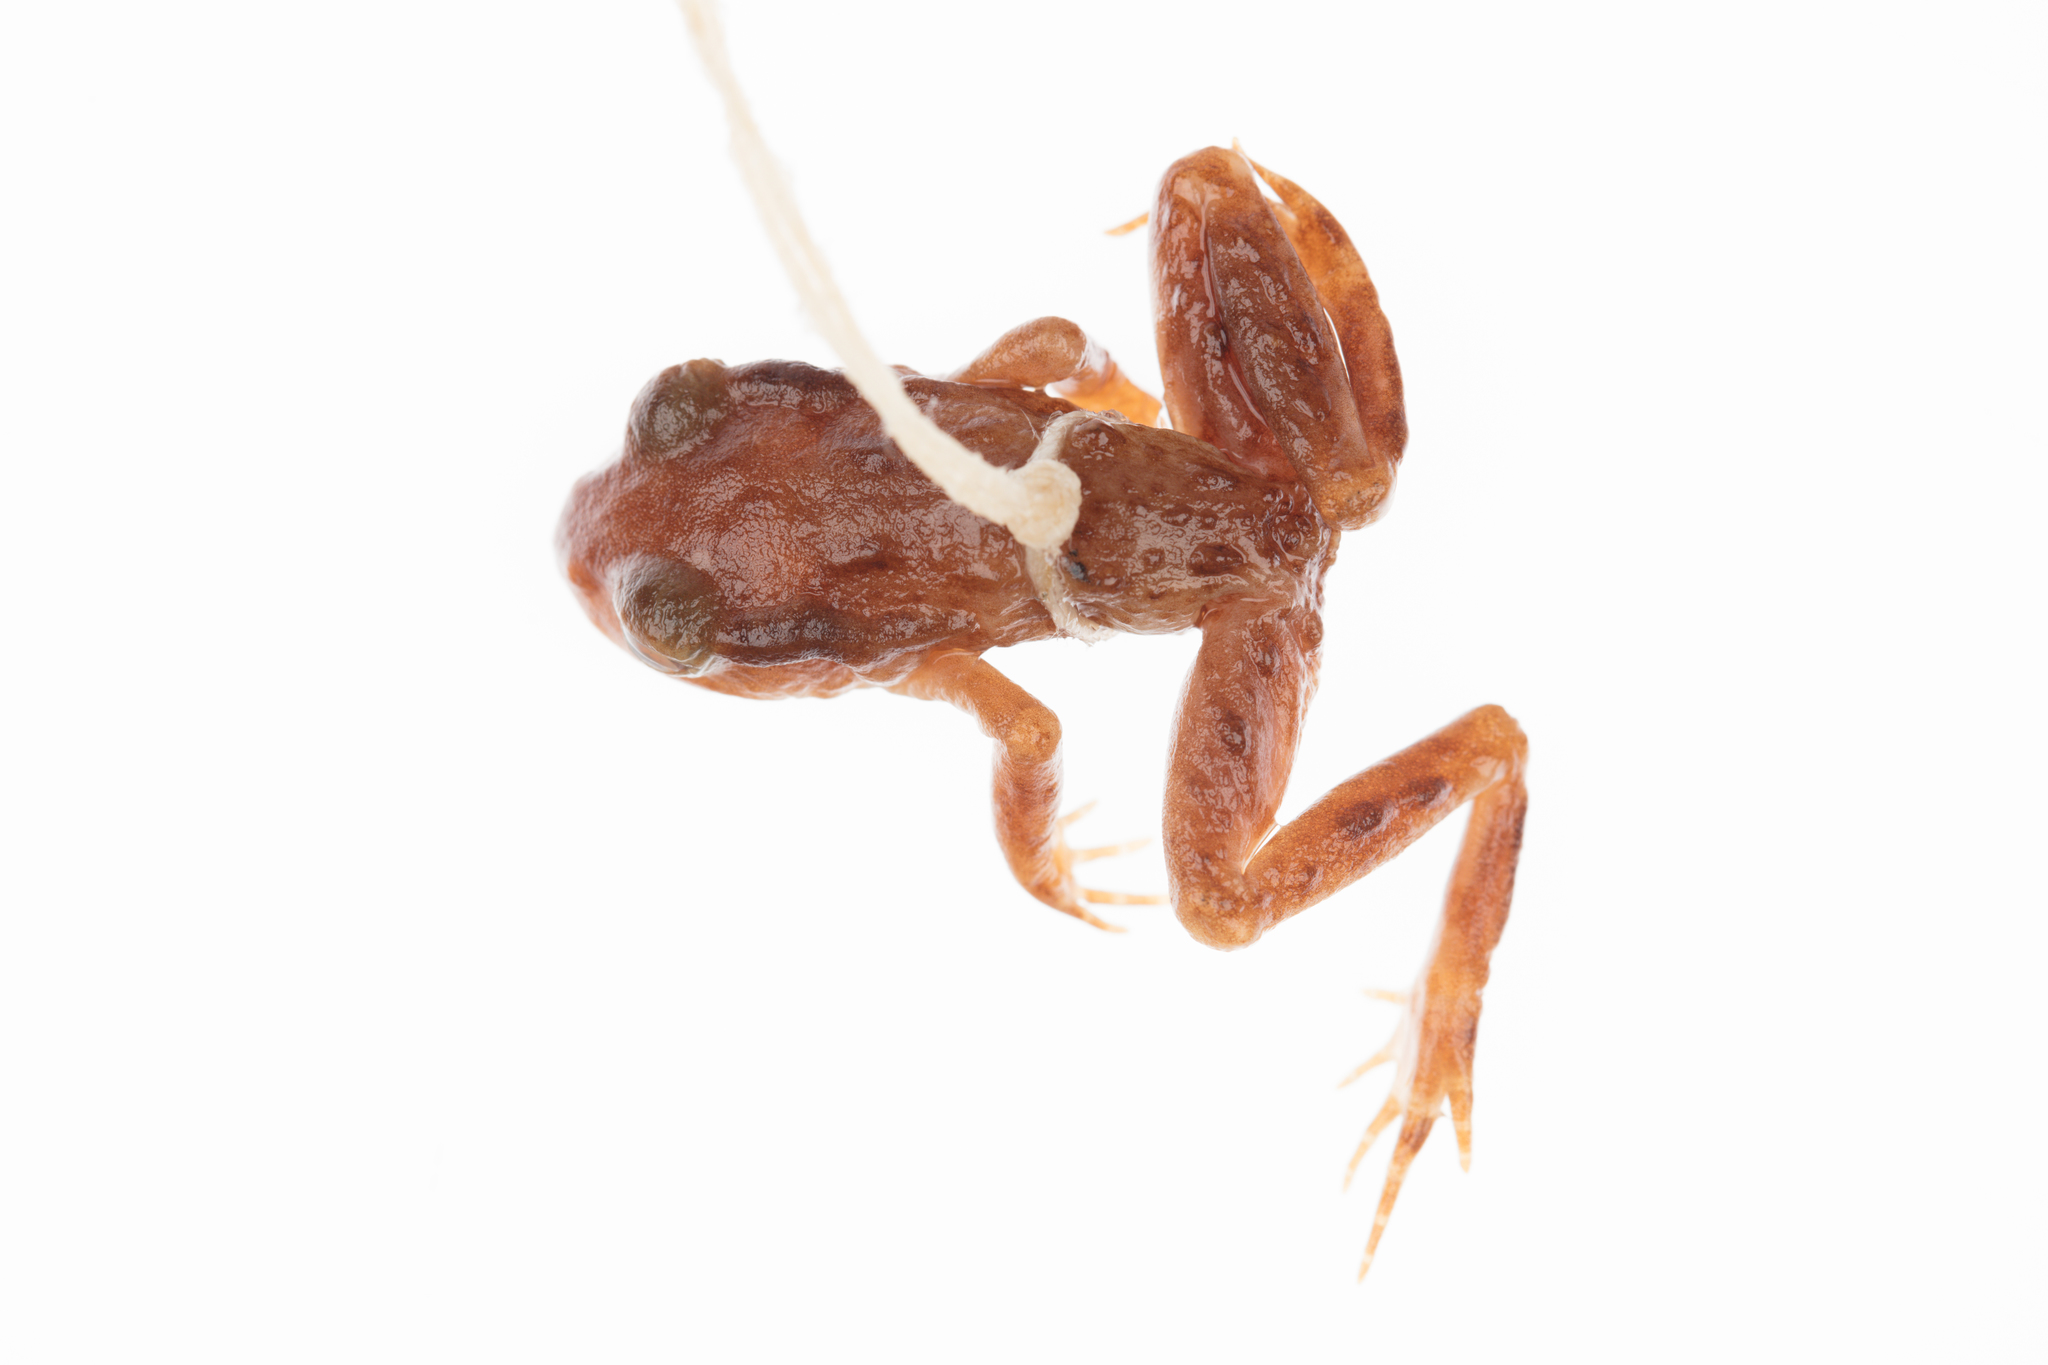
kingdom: Animalia
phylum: Chordata
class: Amphibia
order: Anura
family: Leiopelmatidae
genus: Leiopelma
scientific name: Leiopelma archeyi
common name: Archey's frog
